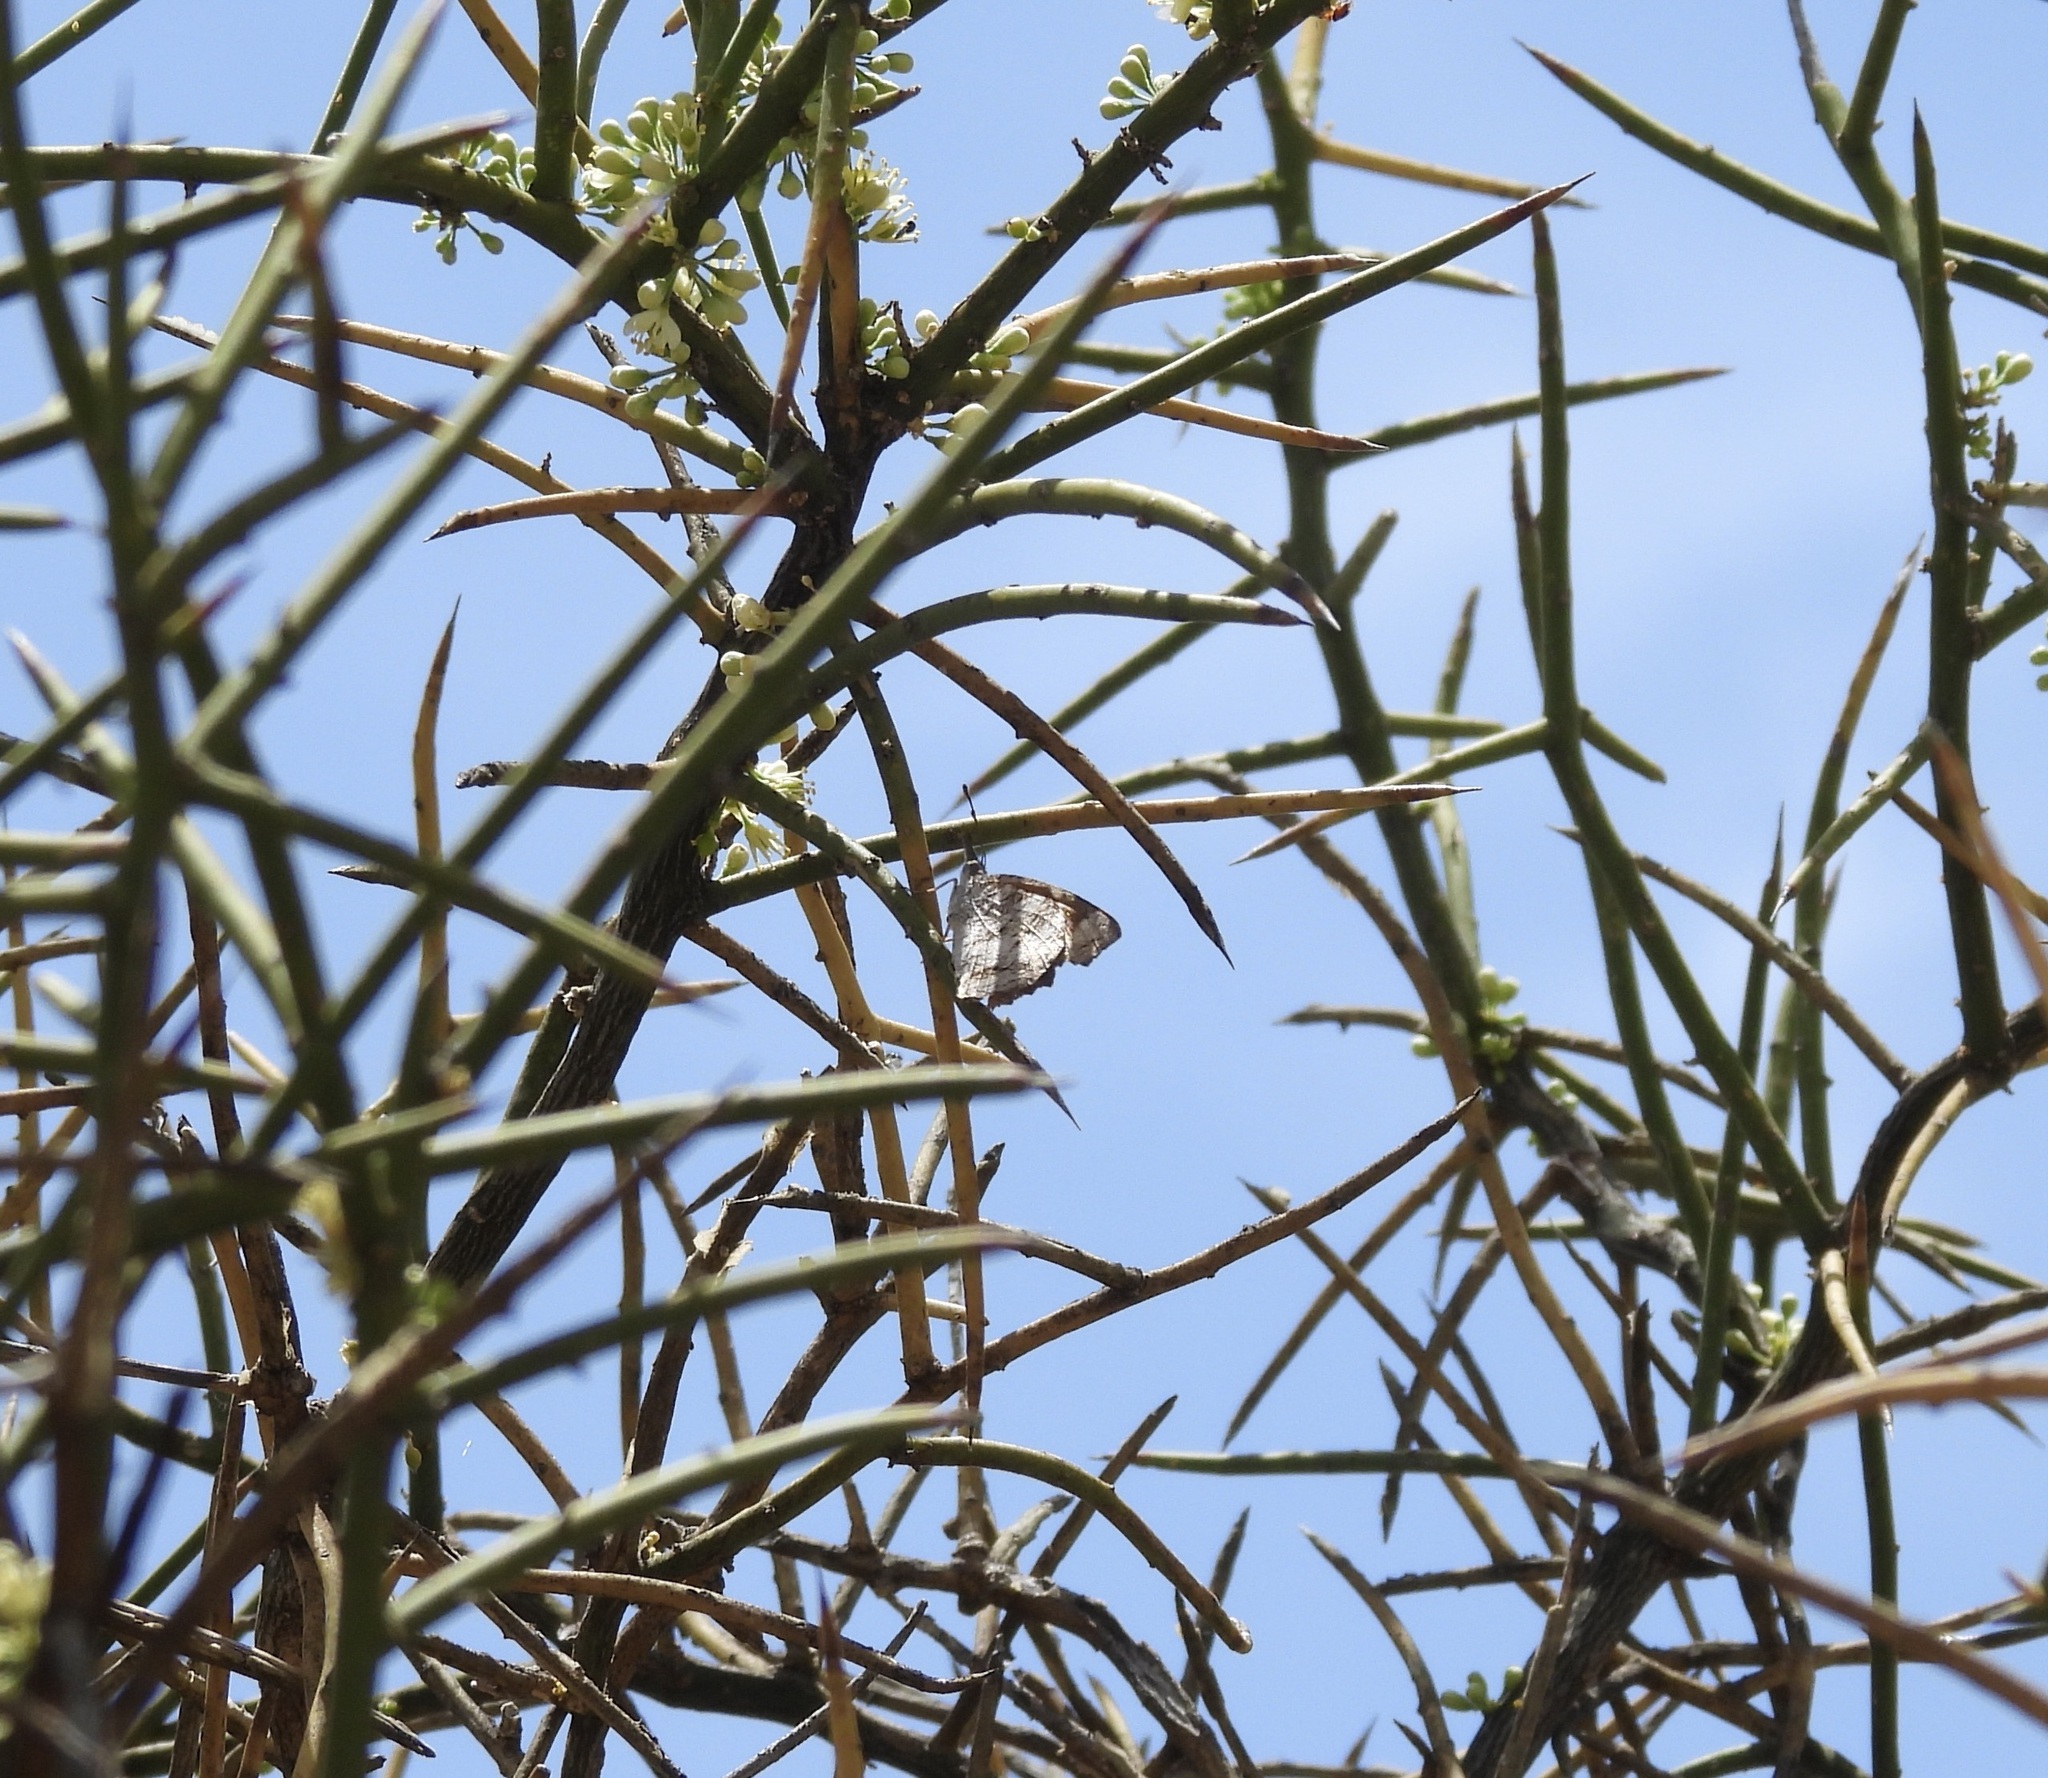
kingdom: Animalia
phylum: Arthropoda
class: Insecta
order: Lepidoptera
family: Nymphalidae
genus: Libytheana
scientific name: Libytheana carinenta
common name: American snout
